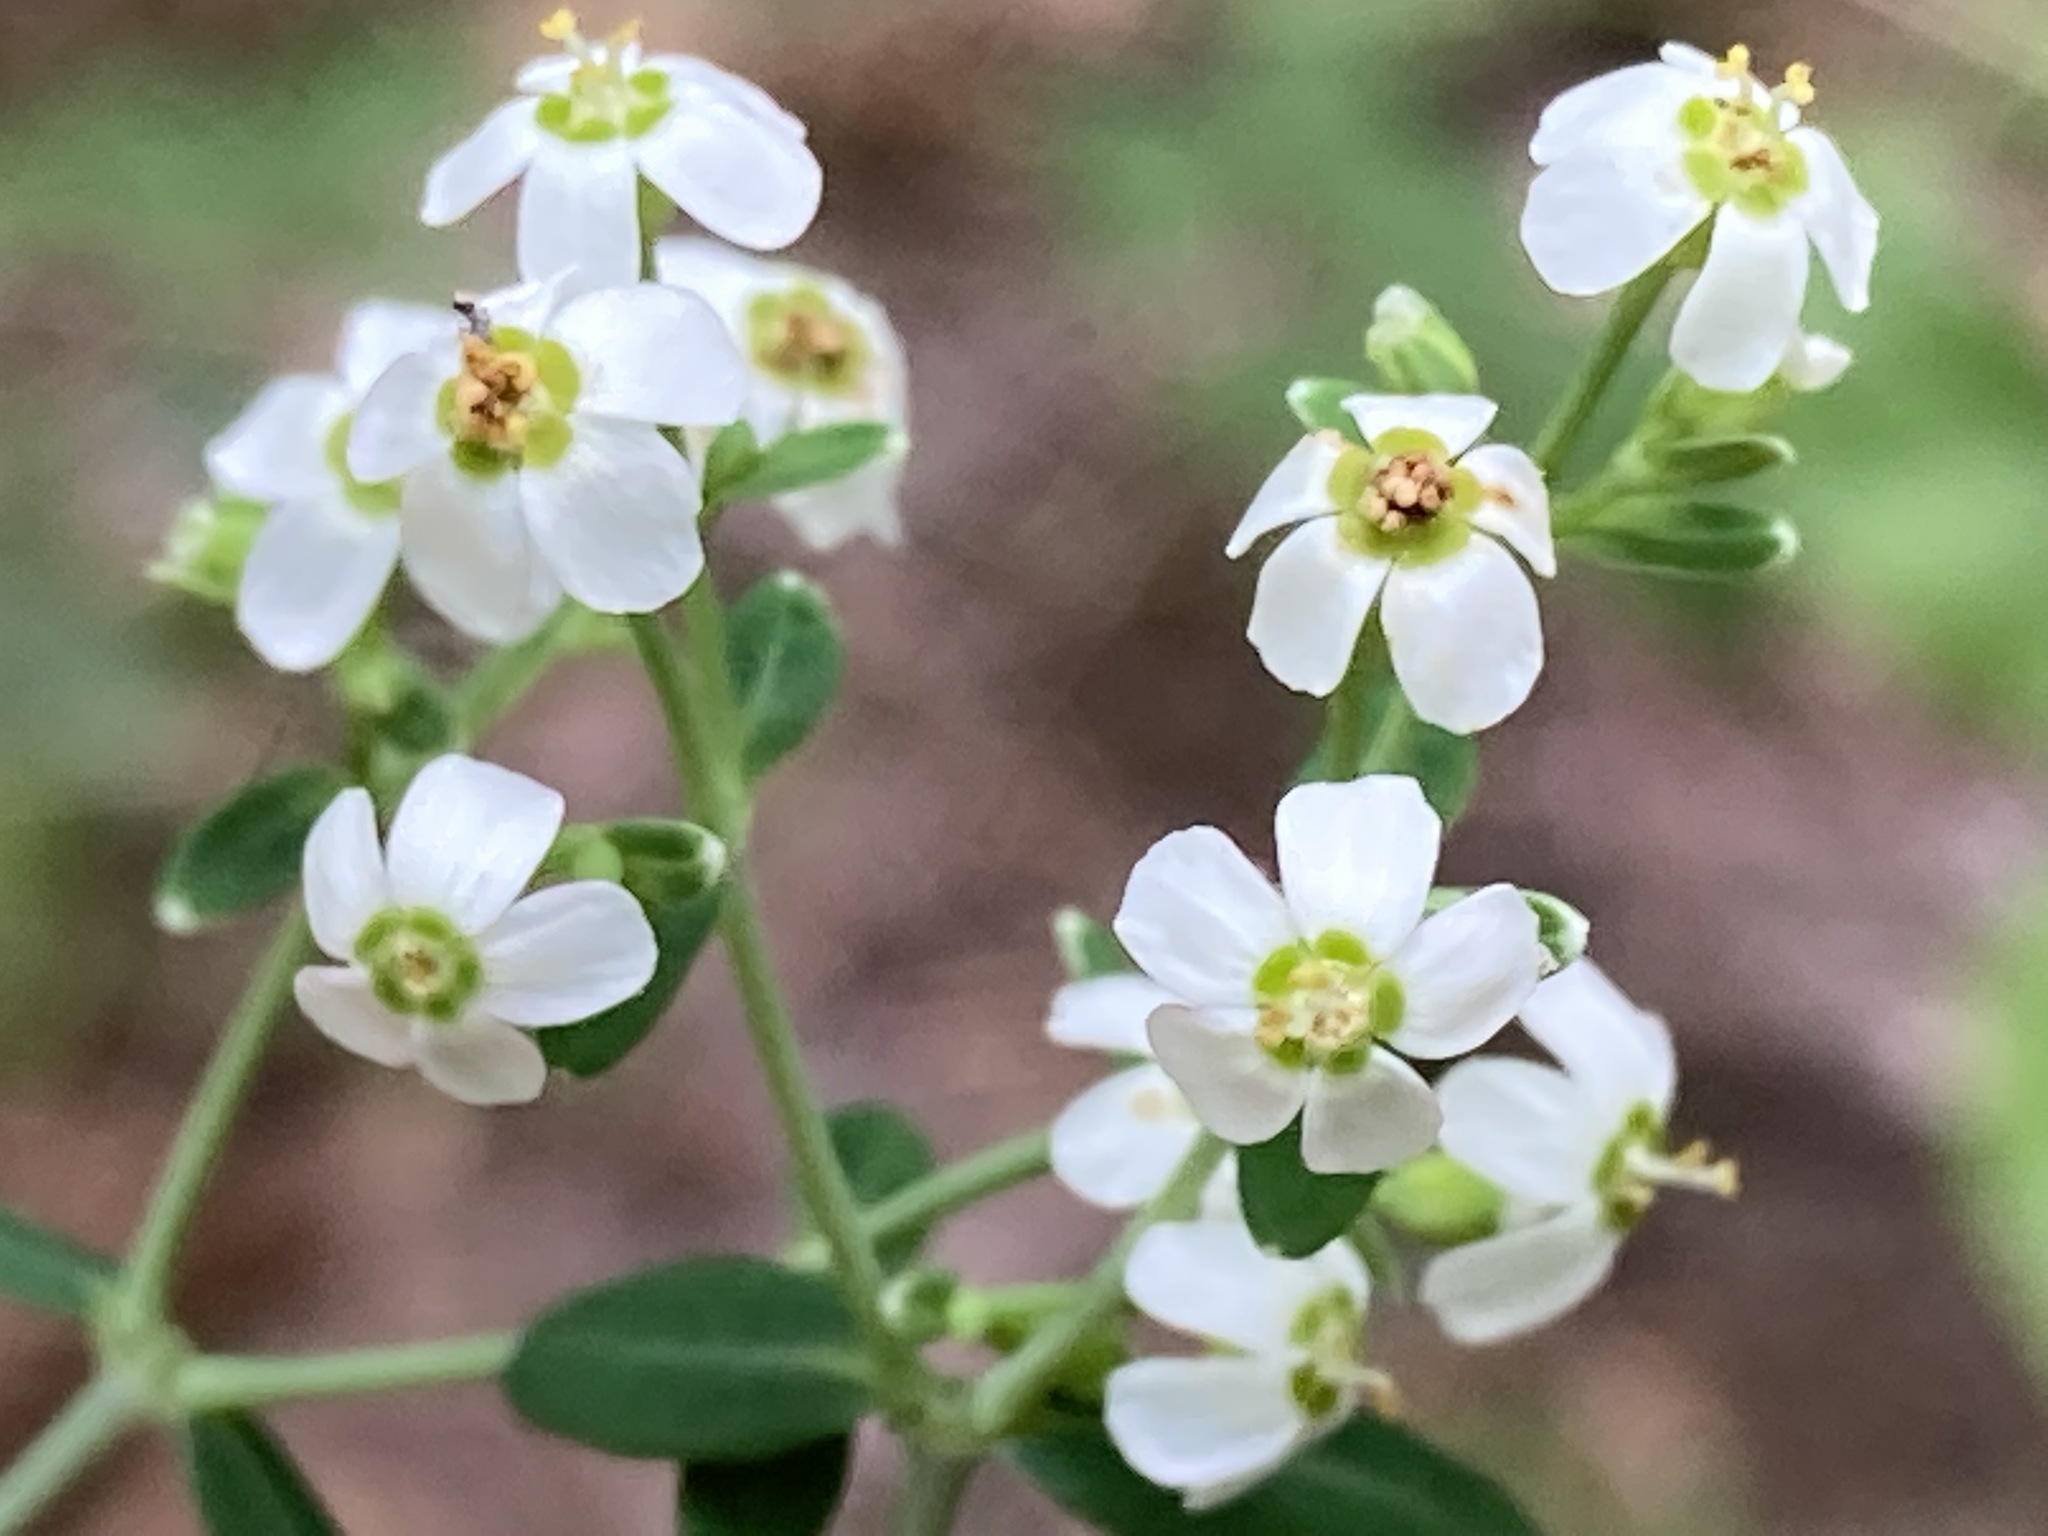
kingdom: Plantae
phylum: Tracheophyta
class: Magnoliopsida
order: Malpighiales
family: Euphorbiaceae
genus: Euphorbia
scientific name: Euphorbia corollata
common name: Flowering spurge
